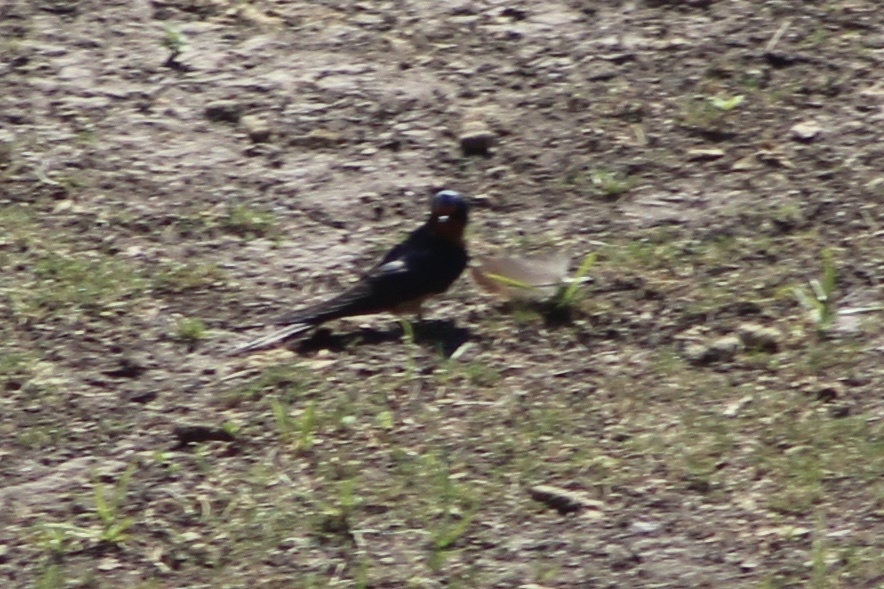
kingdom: Animalia
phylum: Chordata
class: Aves
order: Passeriformes
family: Hirundinidae
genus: Hirundo
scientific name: Hirundo rustica
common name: Barn swallow
